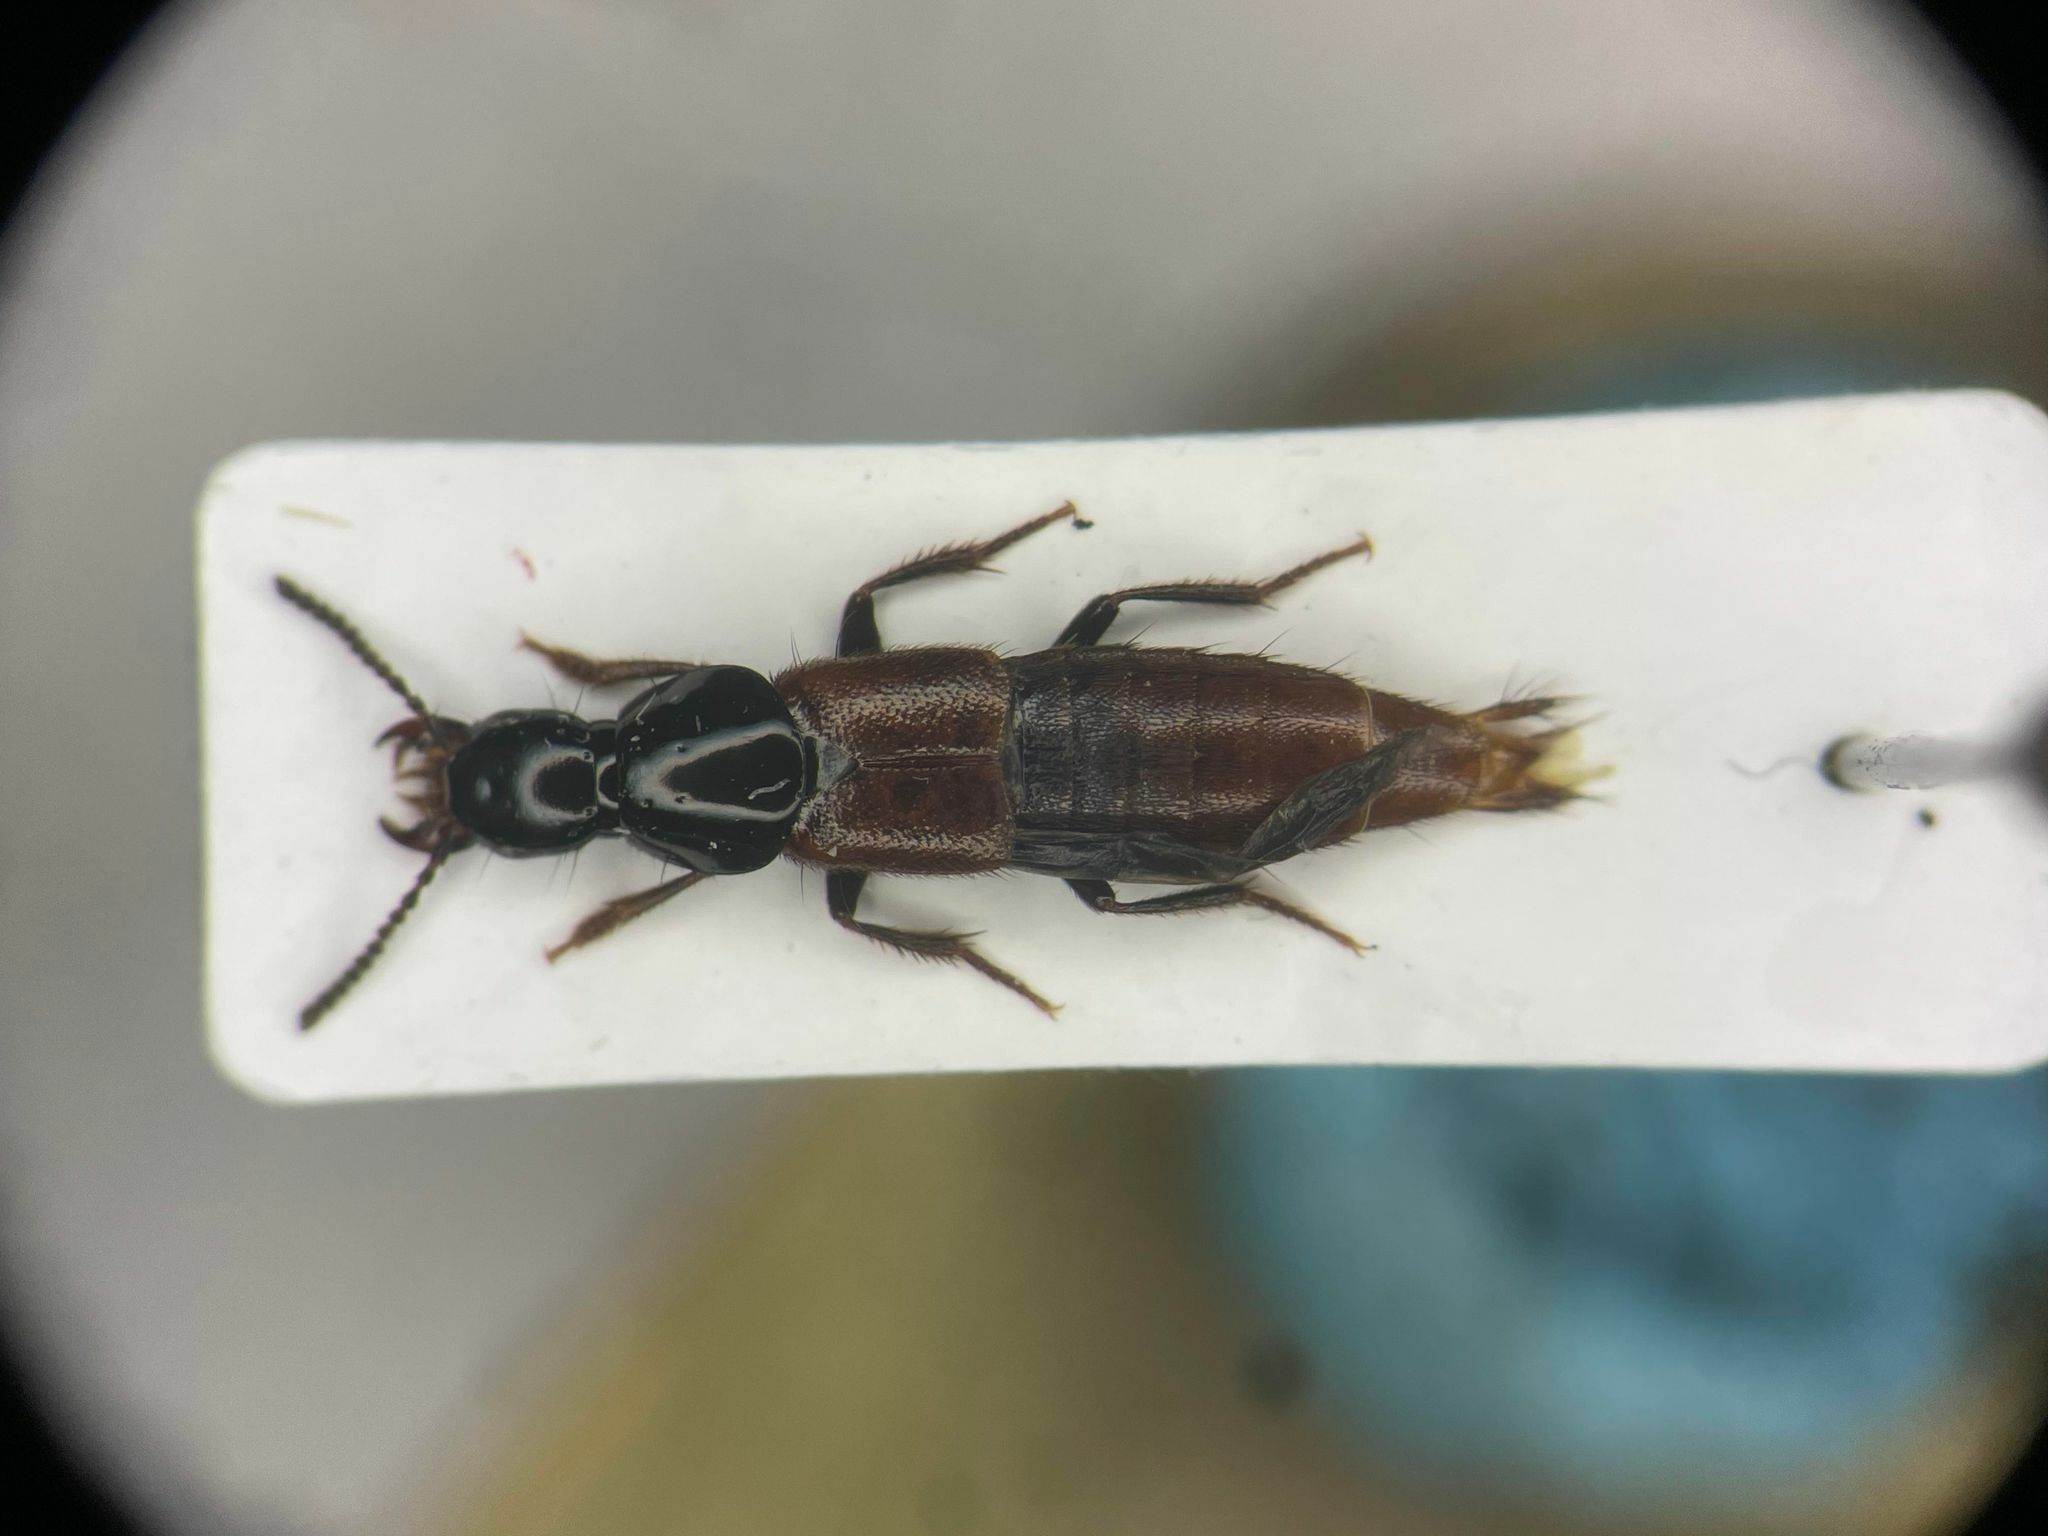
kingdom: Animalia
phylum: Arthropoda
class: Insecta
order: Coleoptera
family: Staphylinidae
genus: Quedius
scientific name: Quedius alesi
